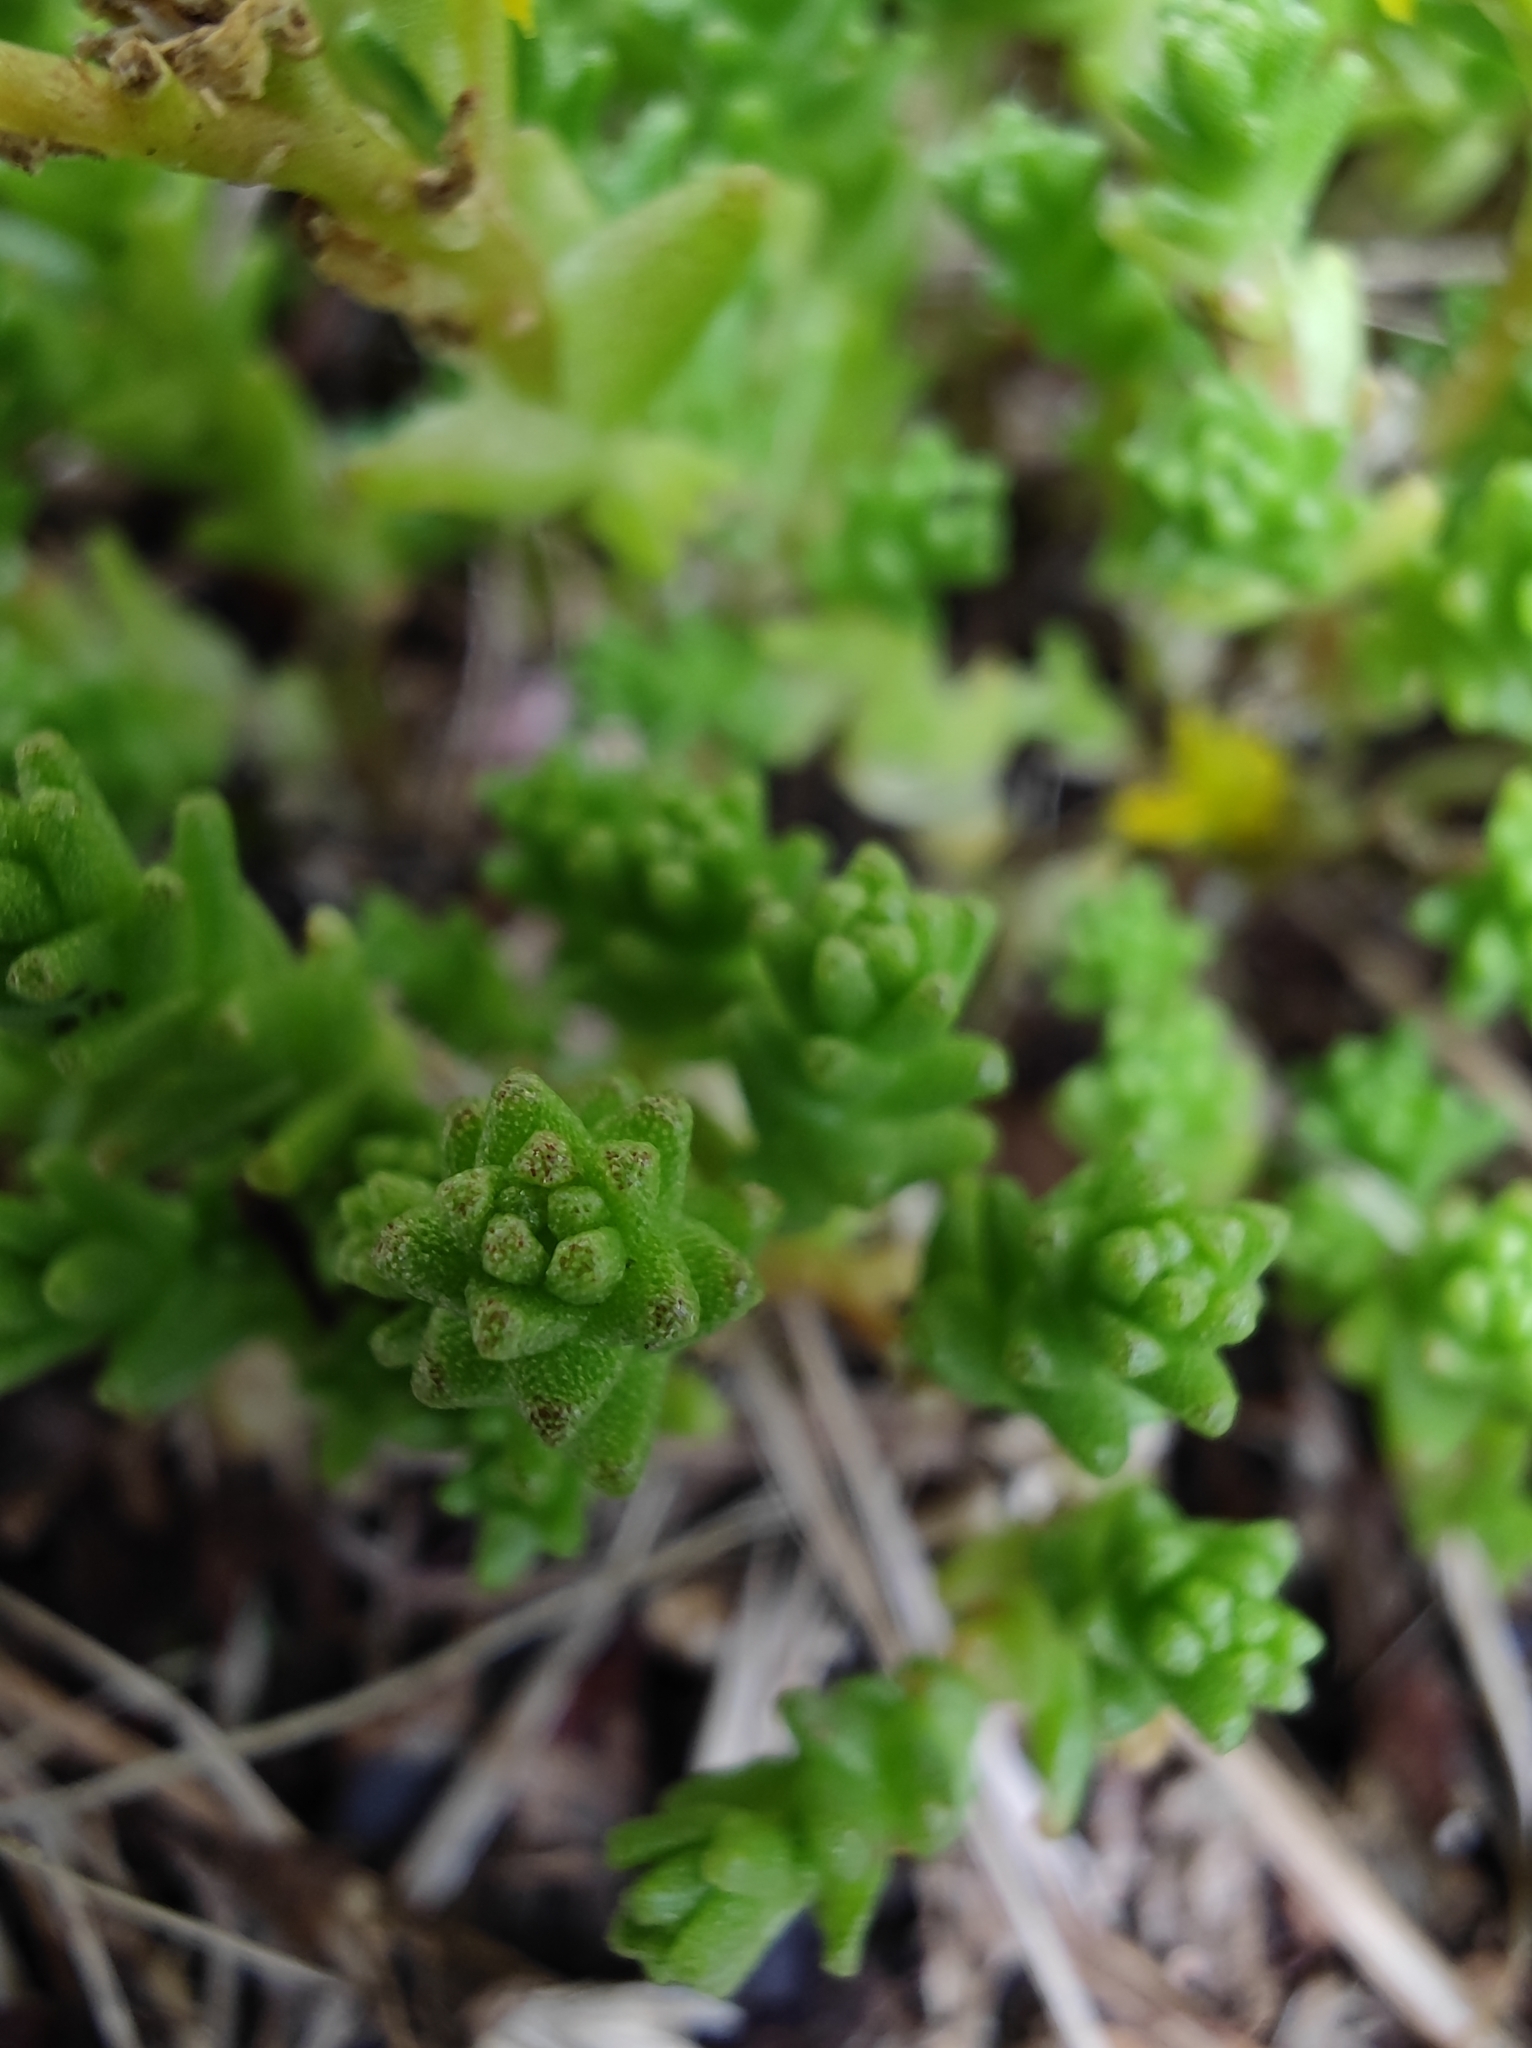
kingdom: Plantae
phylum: Tracheophyta
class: Magnoliopsida
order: Saxifragales
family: Crassulaceae
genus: Sedum
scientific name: Sedum acre
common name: Biting stonecrop
